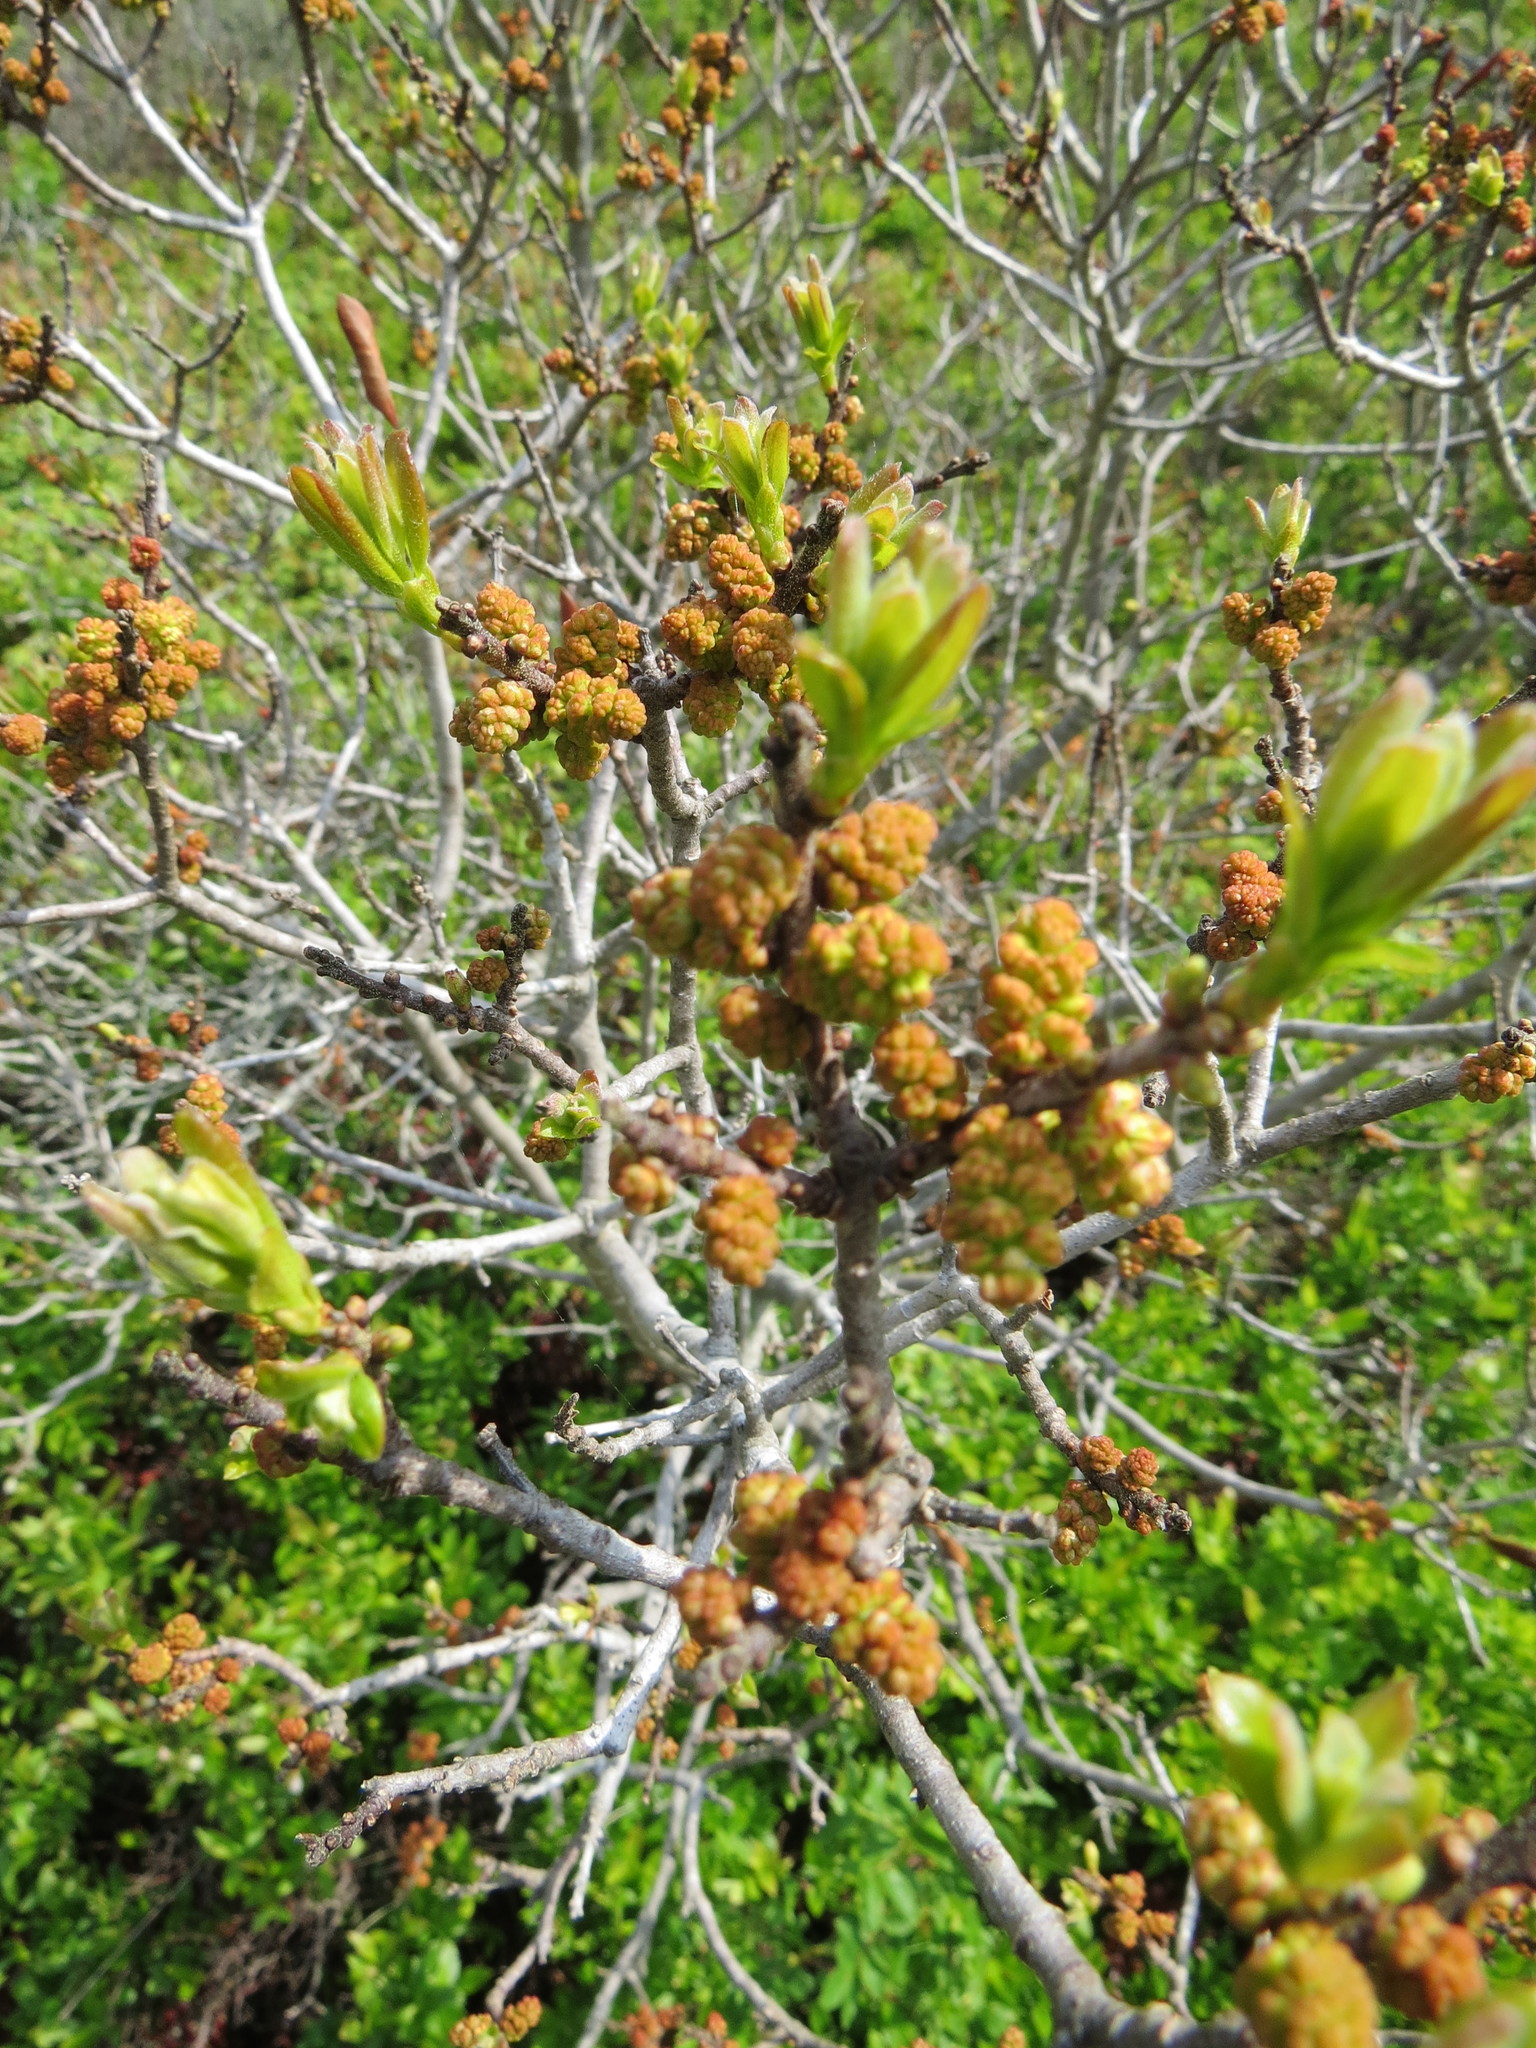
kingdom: Plantae
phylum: Tracheophyta
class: Magnoliopsida
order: Fagales
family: Myricaceae
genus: Morella
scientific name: Morella pensylvanica
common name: Northern bayberry
